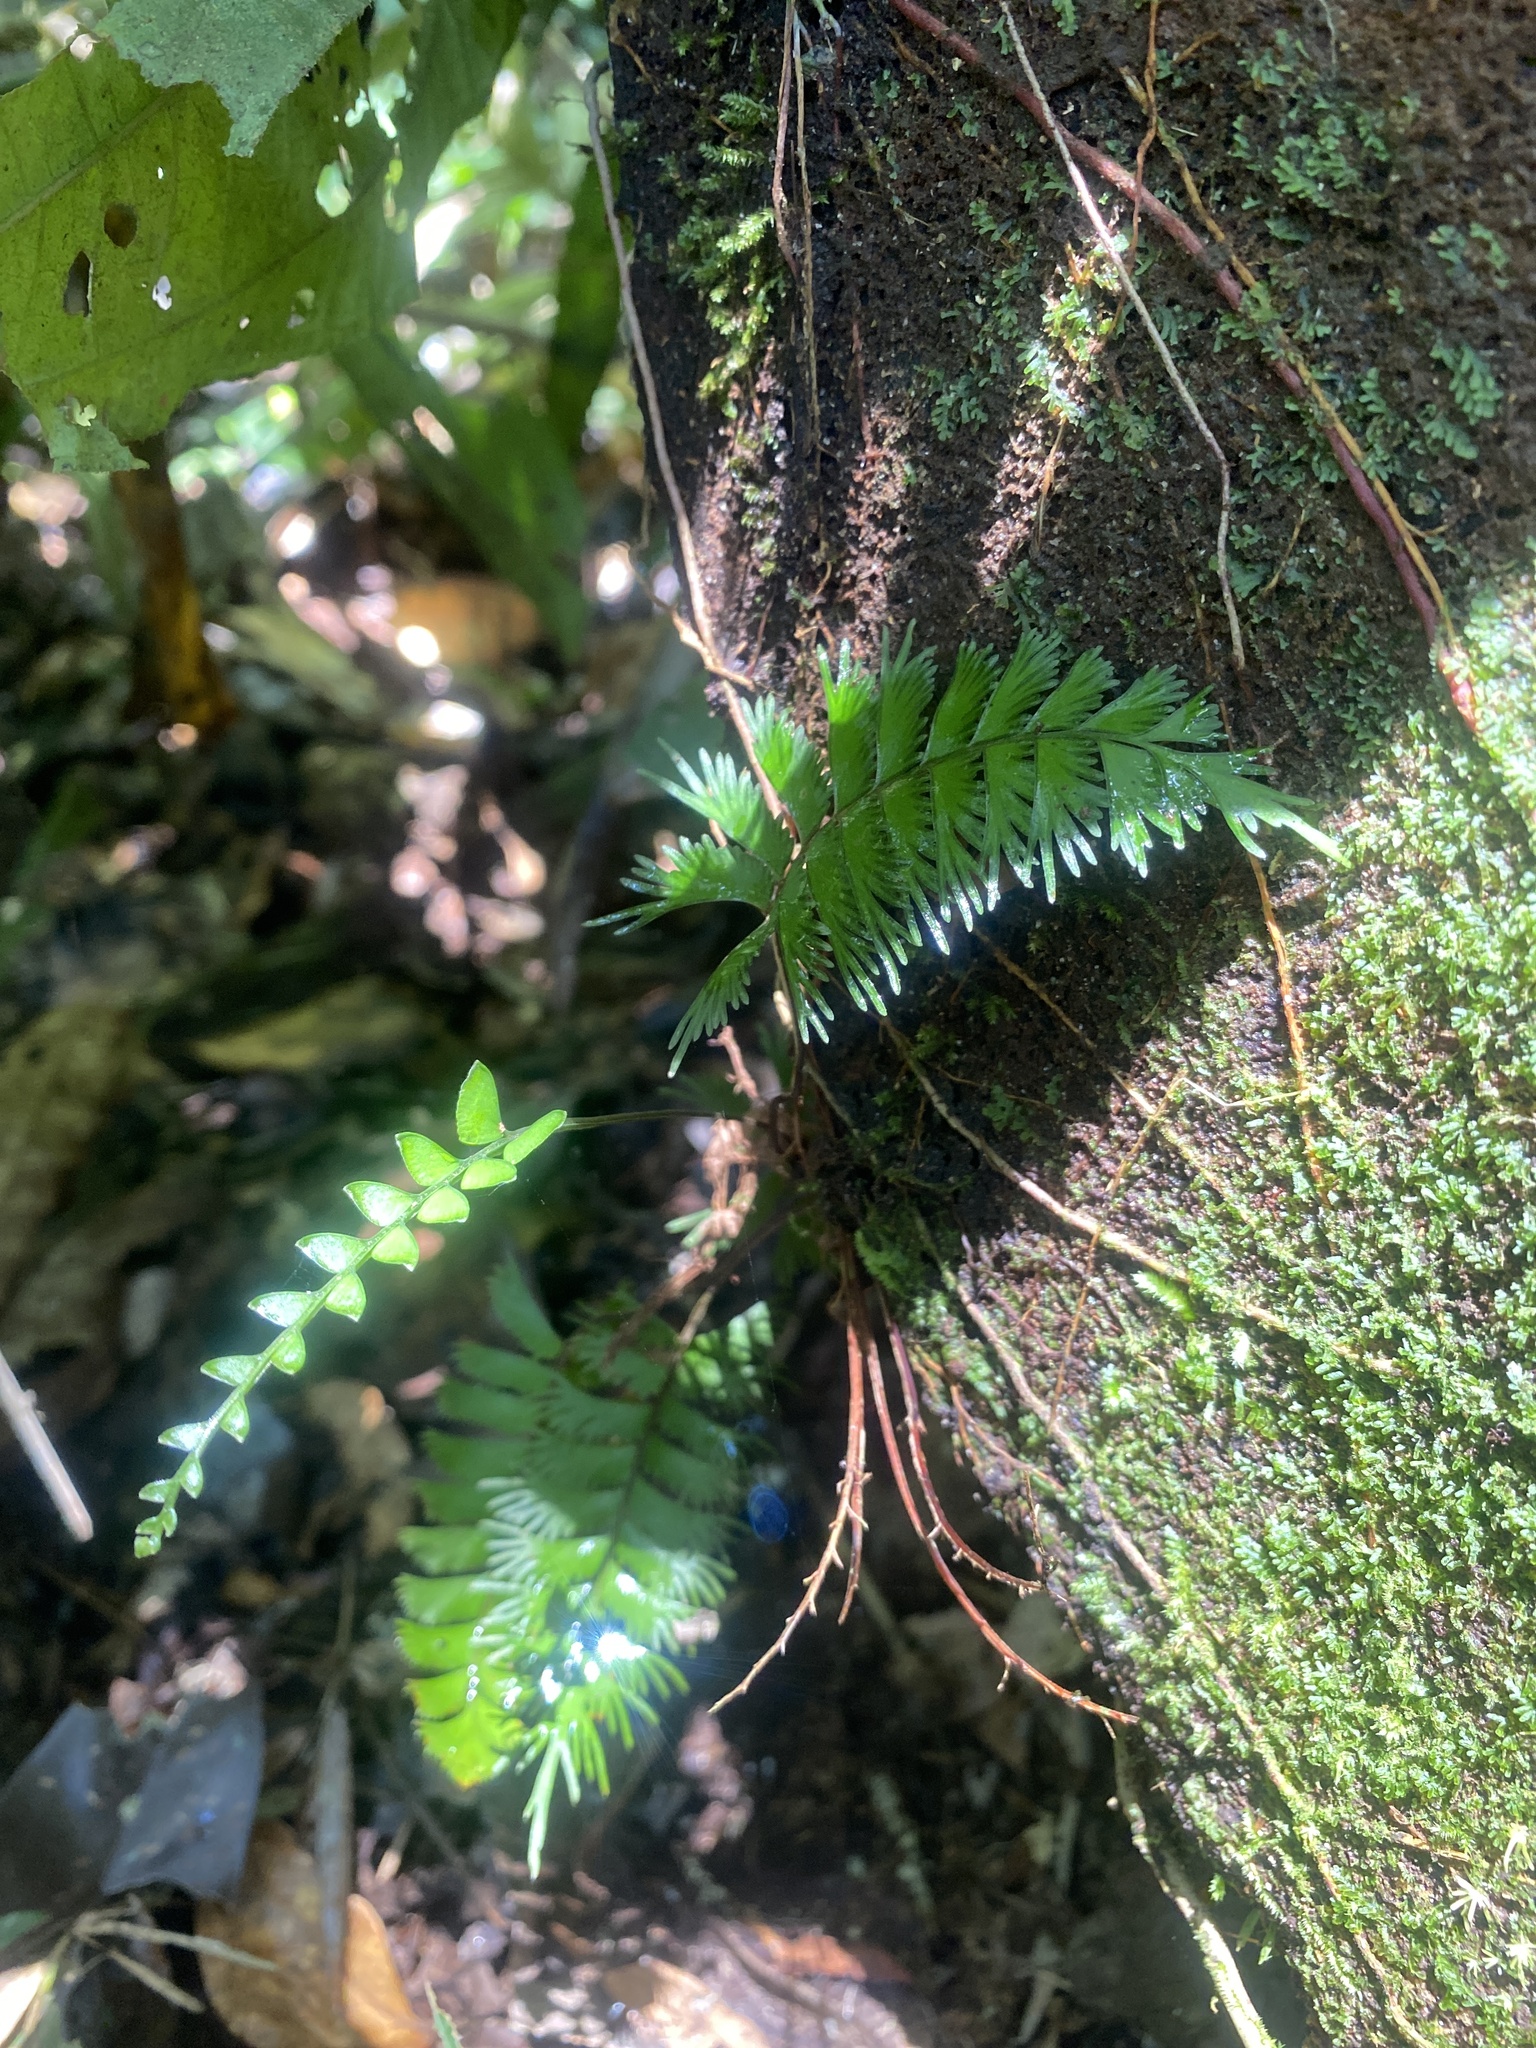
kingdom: Plantae
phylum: Tracheophyta
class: Polypodiopsida
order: Polypodiales
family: Lindsaeaceae
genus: Lindsaea
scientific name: Lindsaea digitata
